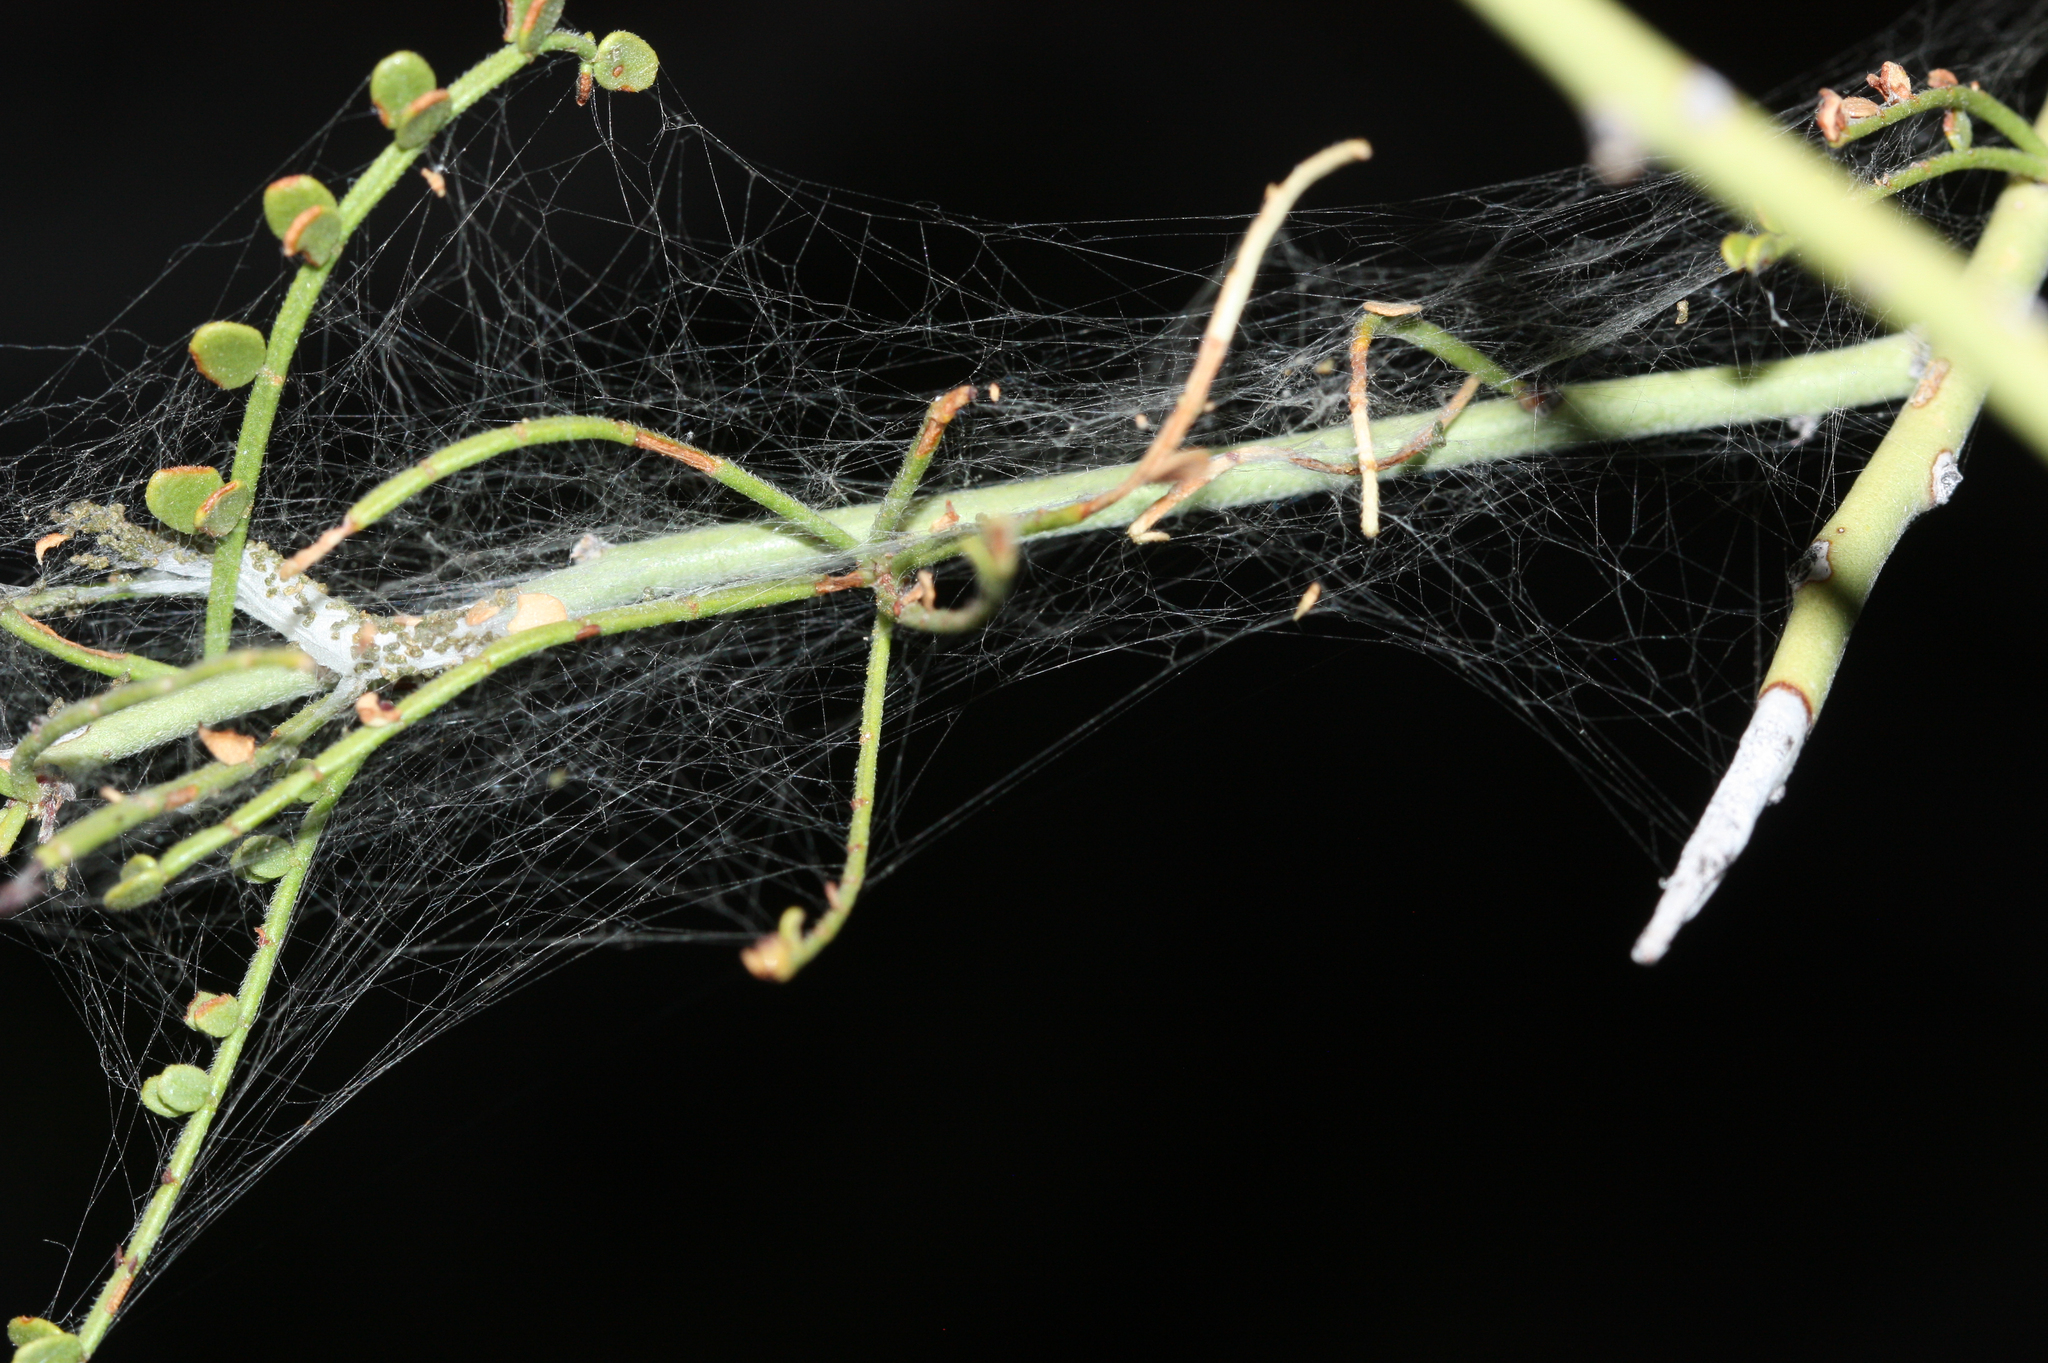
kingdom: Animalia
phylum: Arthropoda
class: Insecta
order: Lepidoptera
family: Gelechiidae
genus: Faculta
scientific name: Faculta inaequalis
